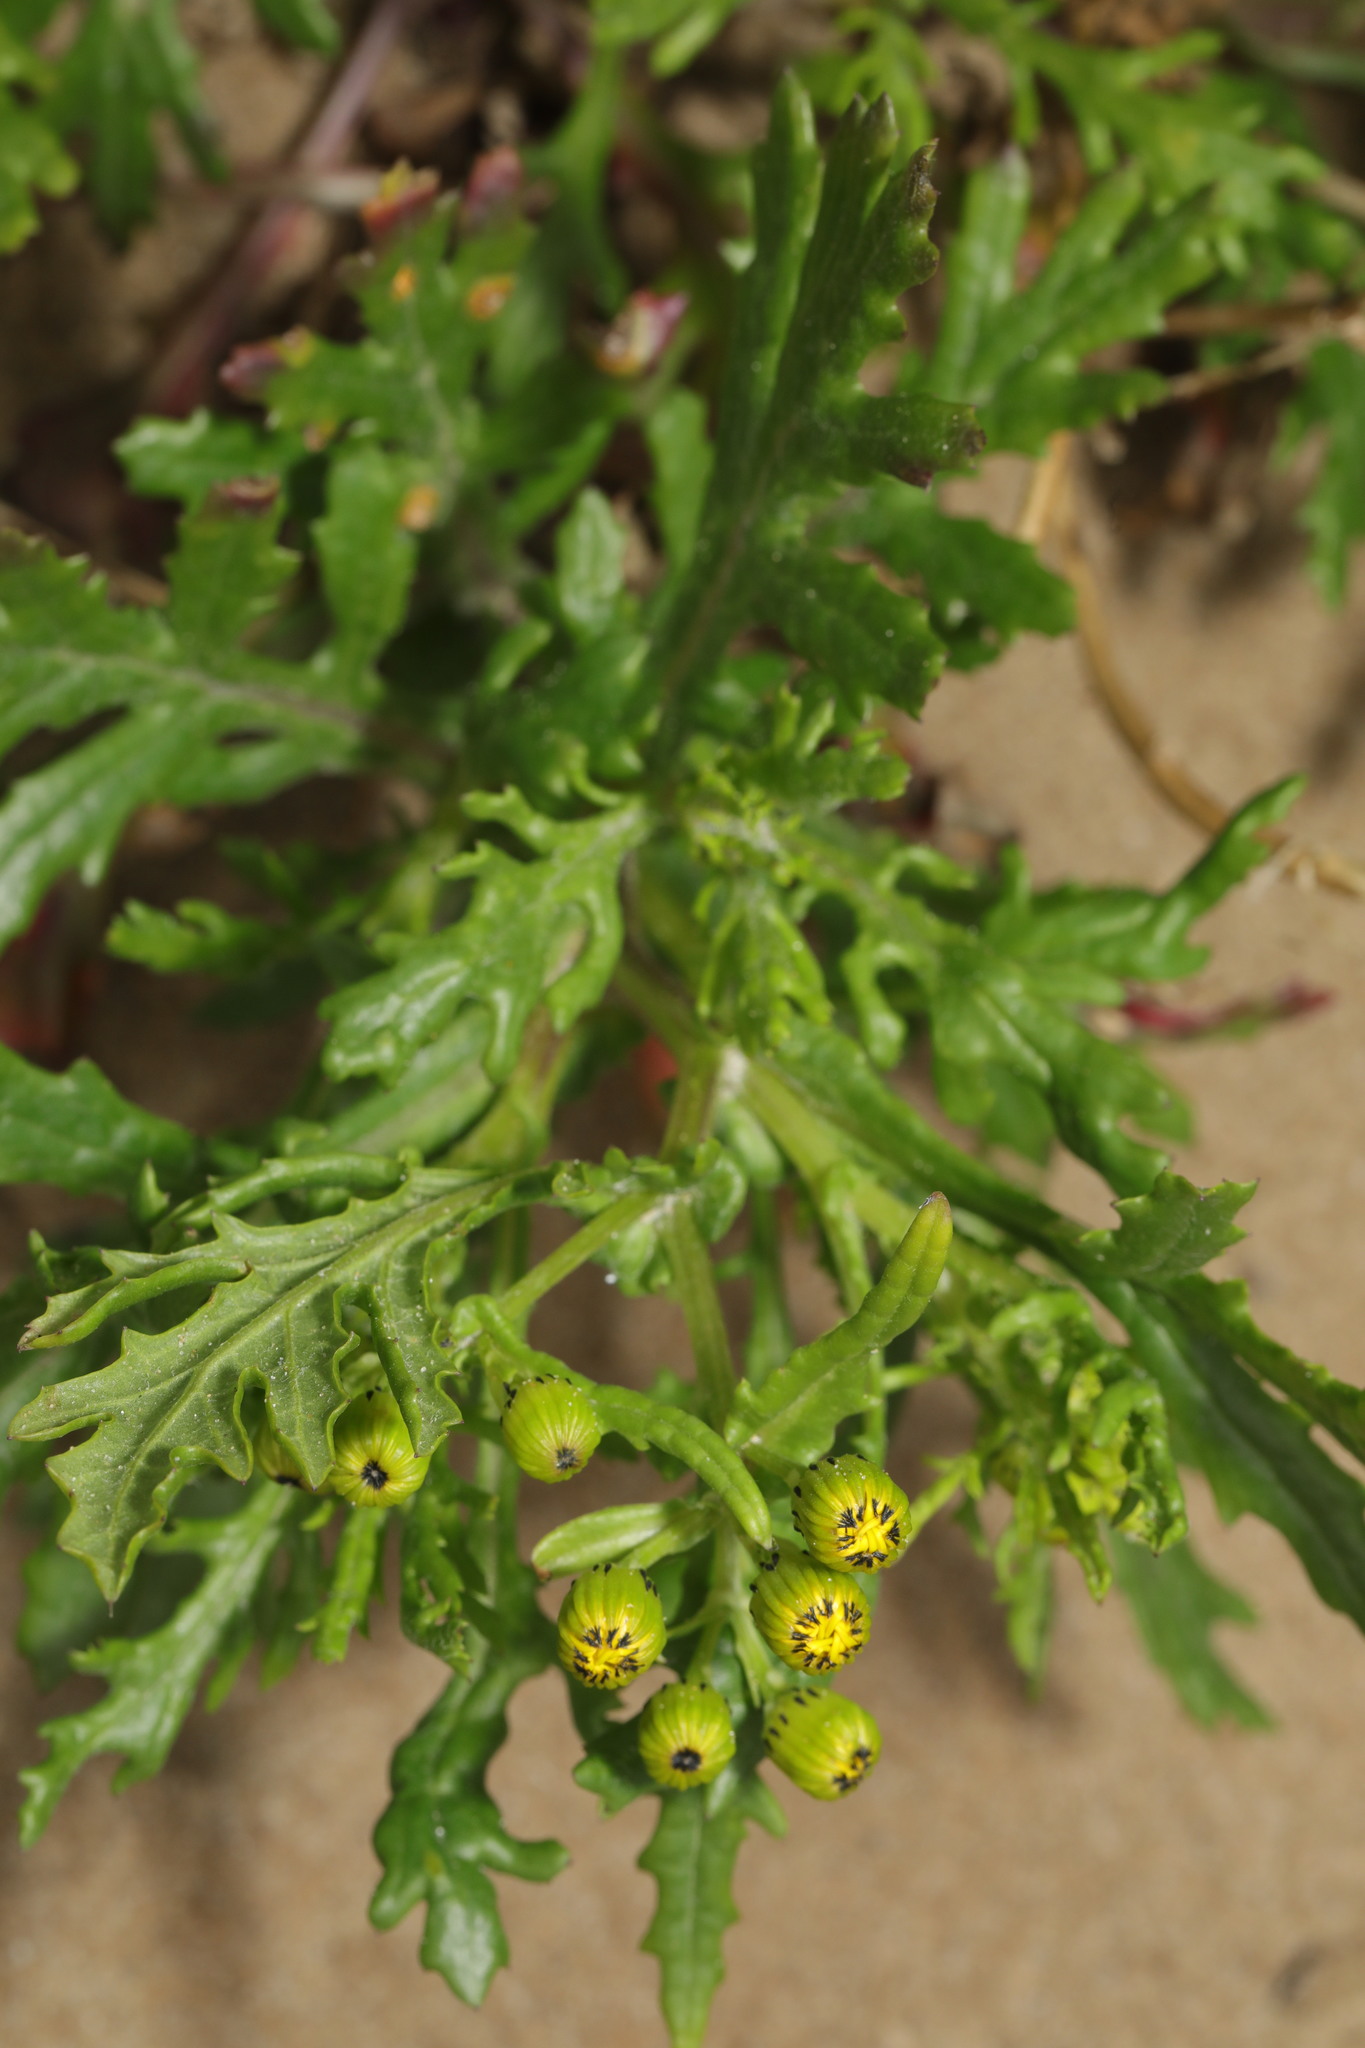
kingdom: Plantae
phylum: Tracheophyta
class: Magnoliopsida
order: Asterales
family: Asteraceae
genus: Senecio
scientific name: Senecio squalidus
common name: Oxford ragwort
